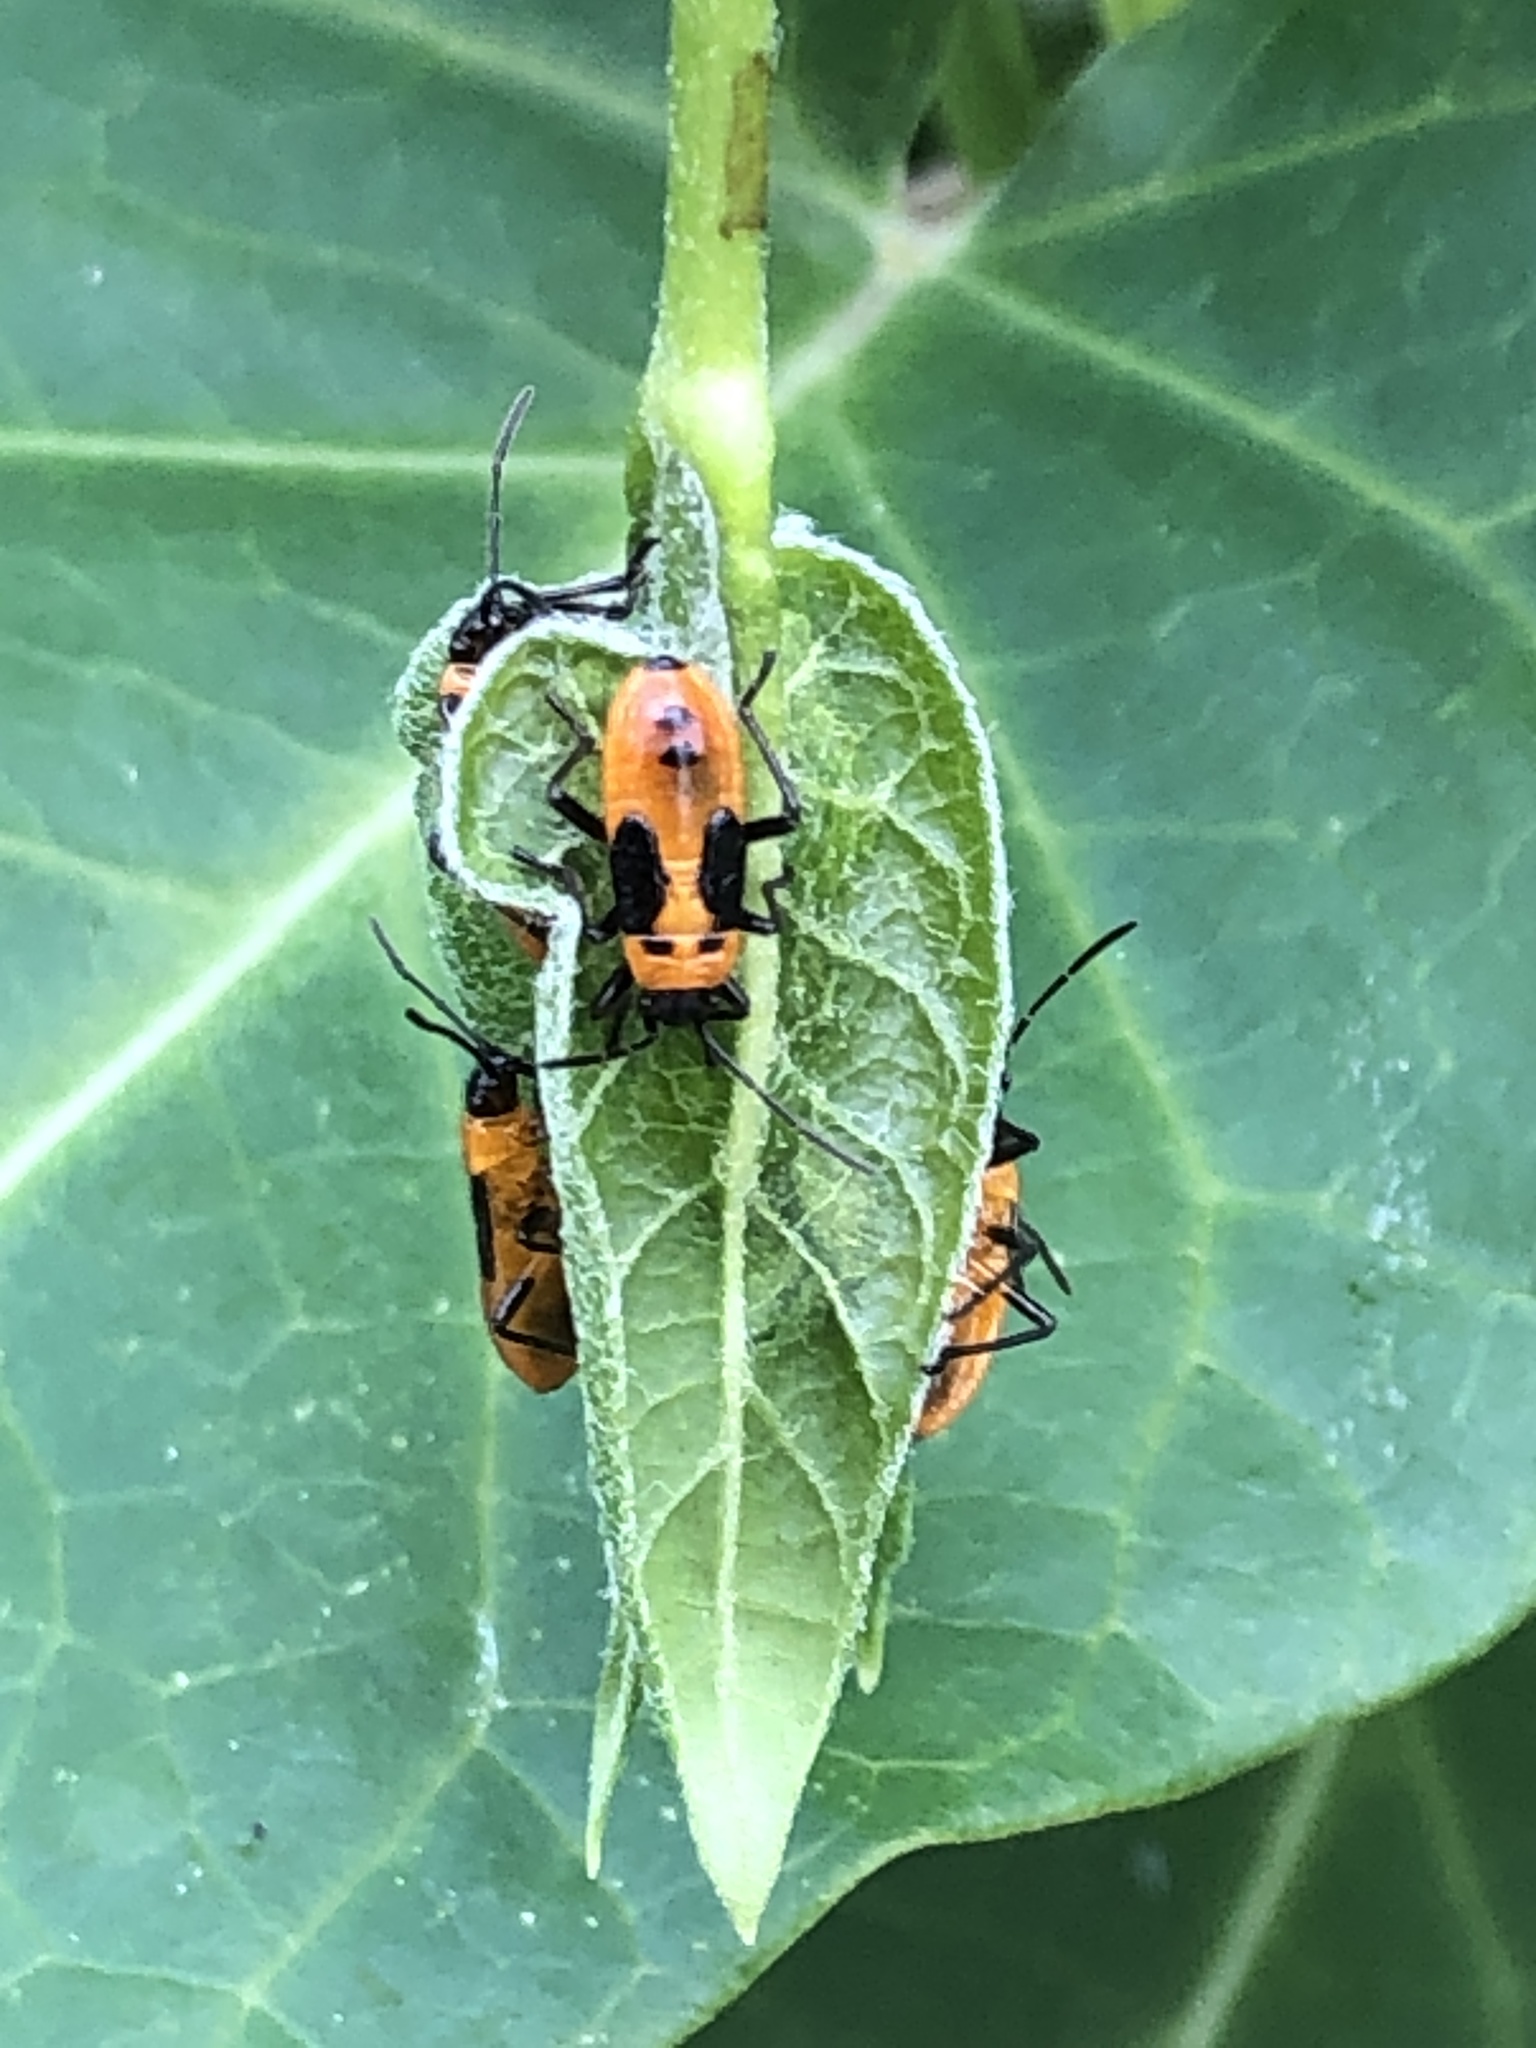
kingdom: Animalia
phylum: Arthropoda
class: Insecta
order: Hemiptera
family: Lygaeidae
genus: Tropidothorax
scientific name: Tropidothorax cruciger
